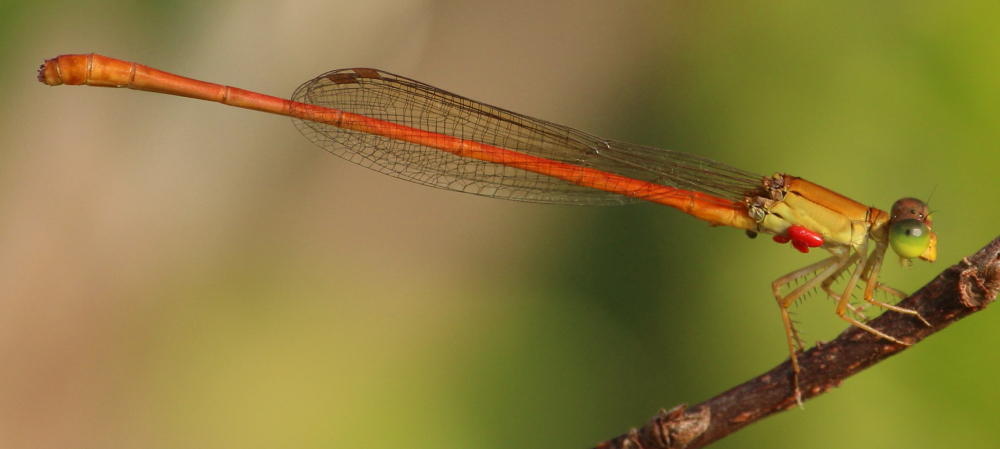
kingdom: Animalia
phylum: Arthropoda
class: Insecta
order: Odonata
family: Coenagrionidae
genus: Ceriagrion
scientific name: Ceriagrion glabrum
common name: Common pond damsel
